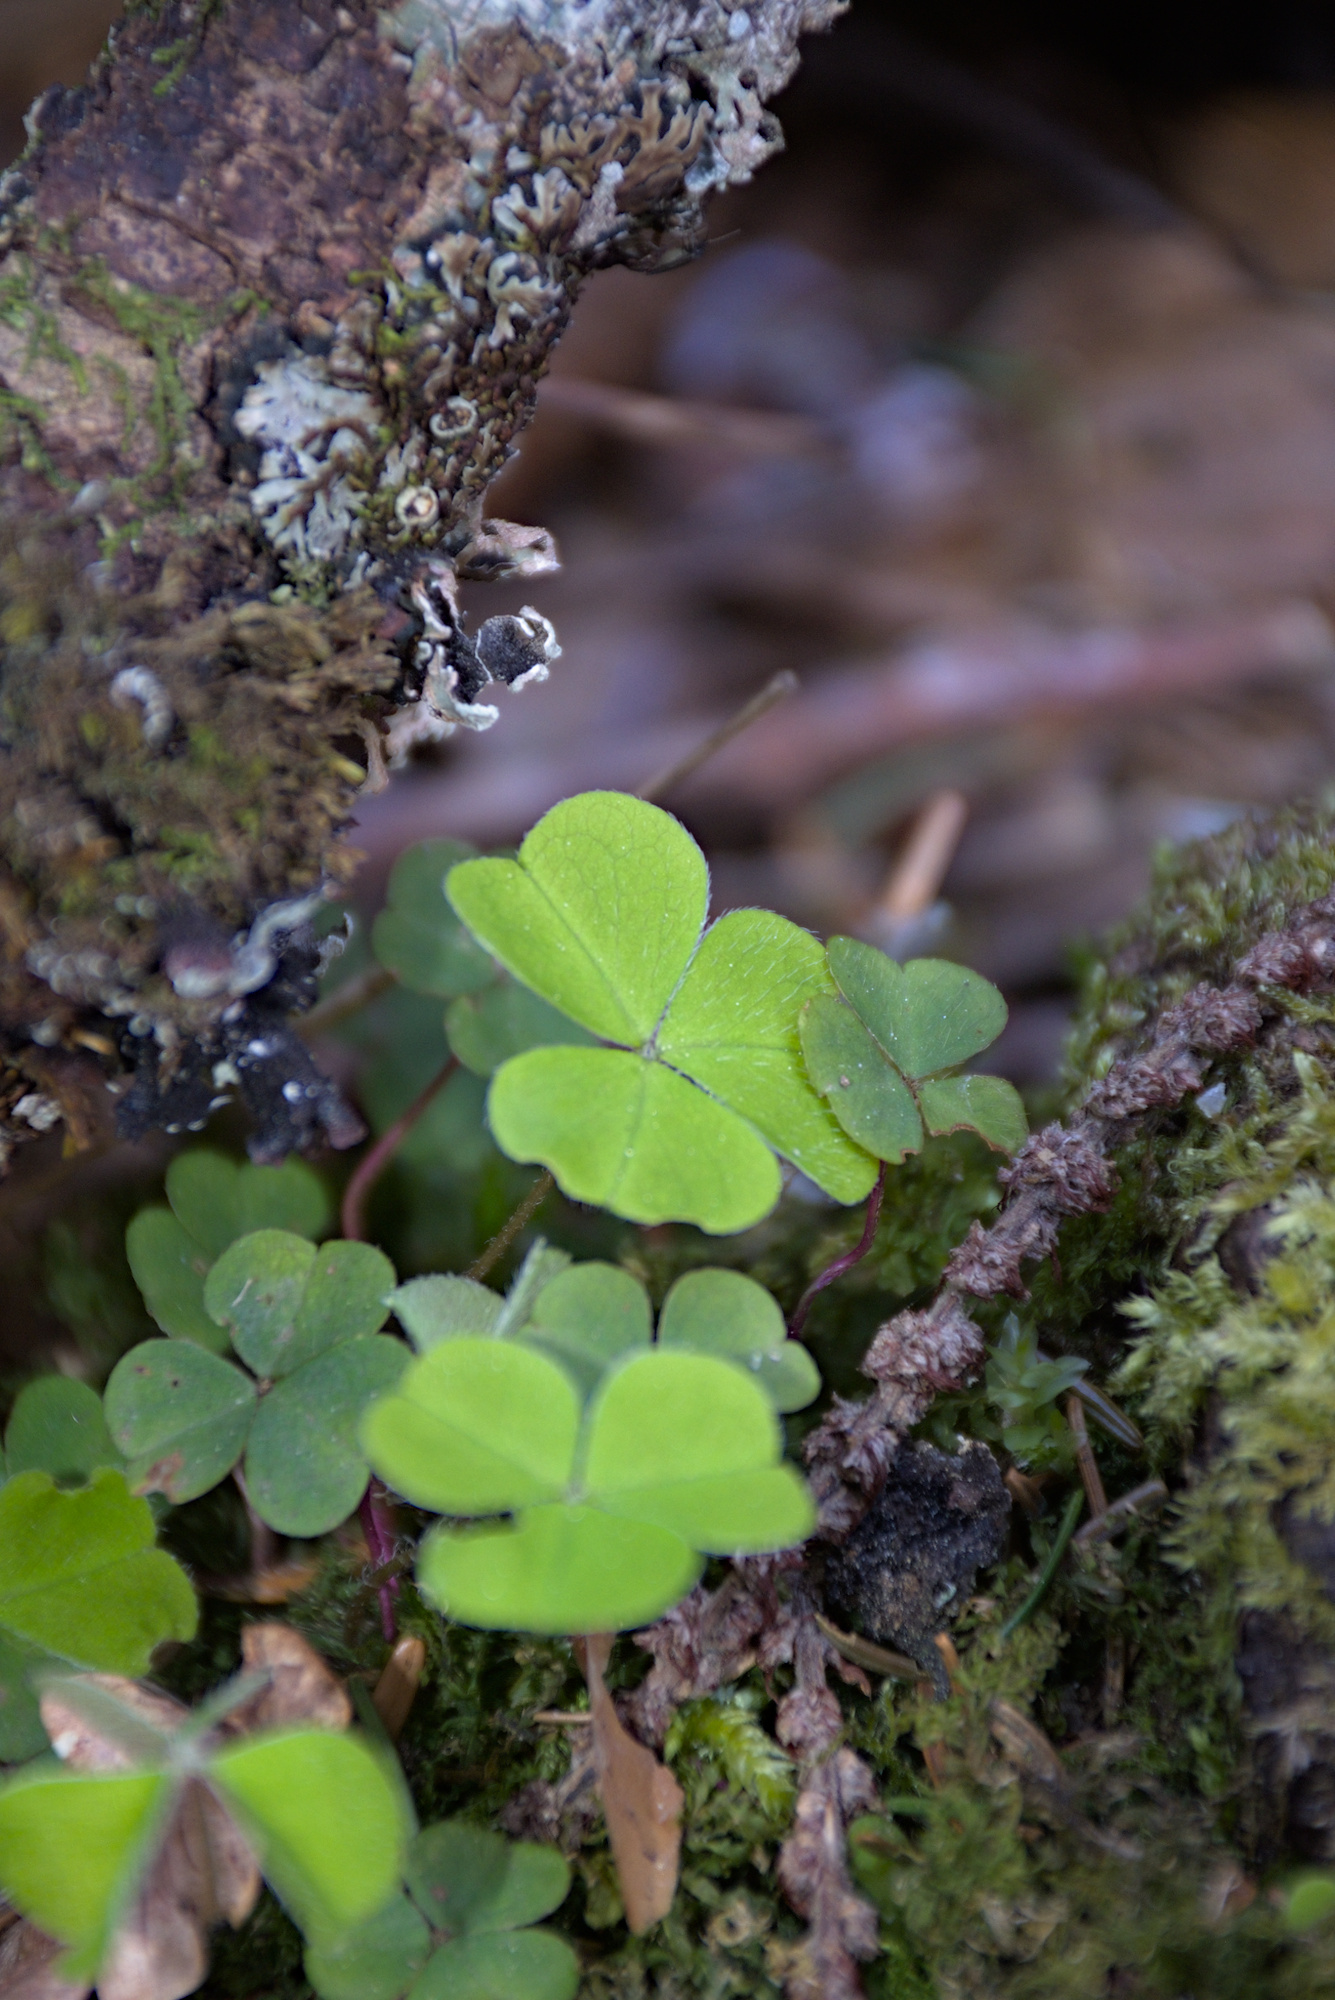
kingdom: Plantae
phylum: Tracheophyta
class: Magnoliopsida
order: Oxalidales
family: Oxalidaceae
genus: Oxalis
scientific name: Oxalis acetosella
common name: Wood-sorrel
